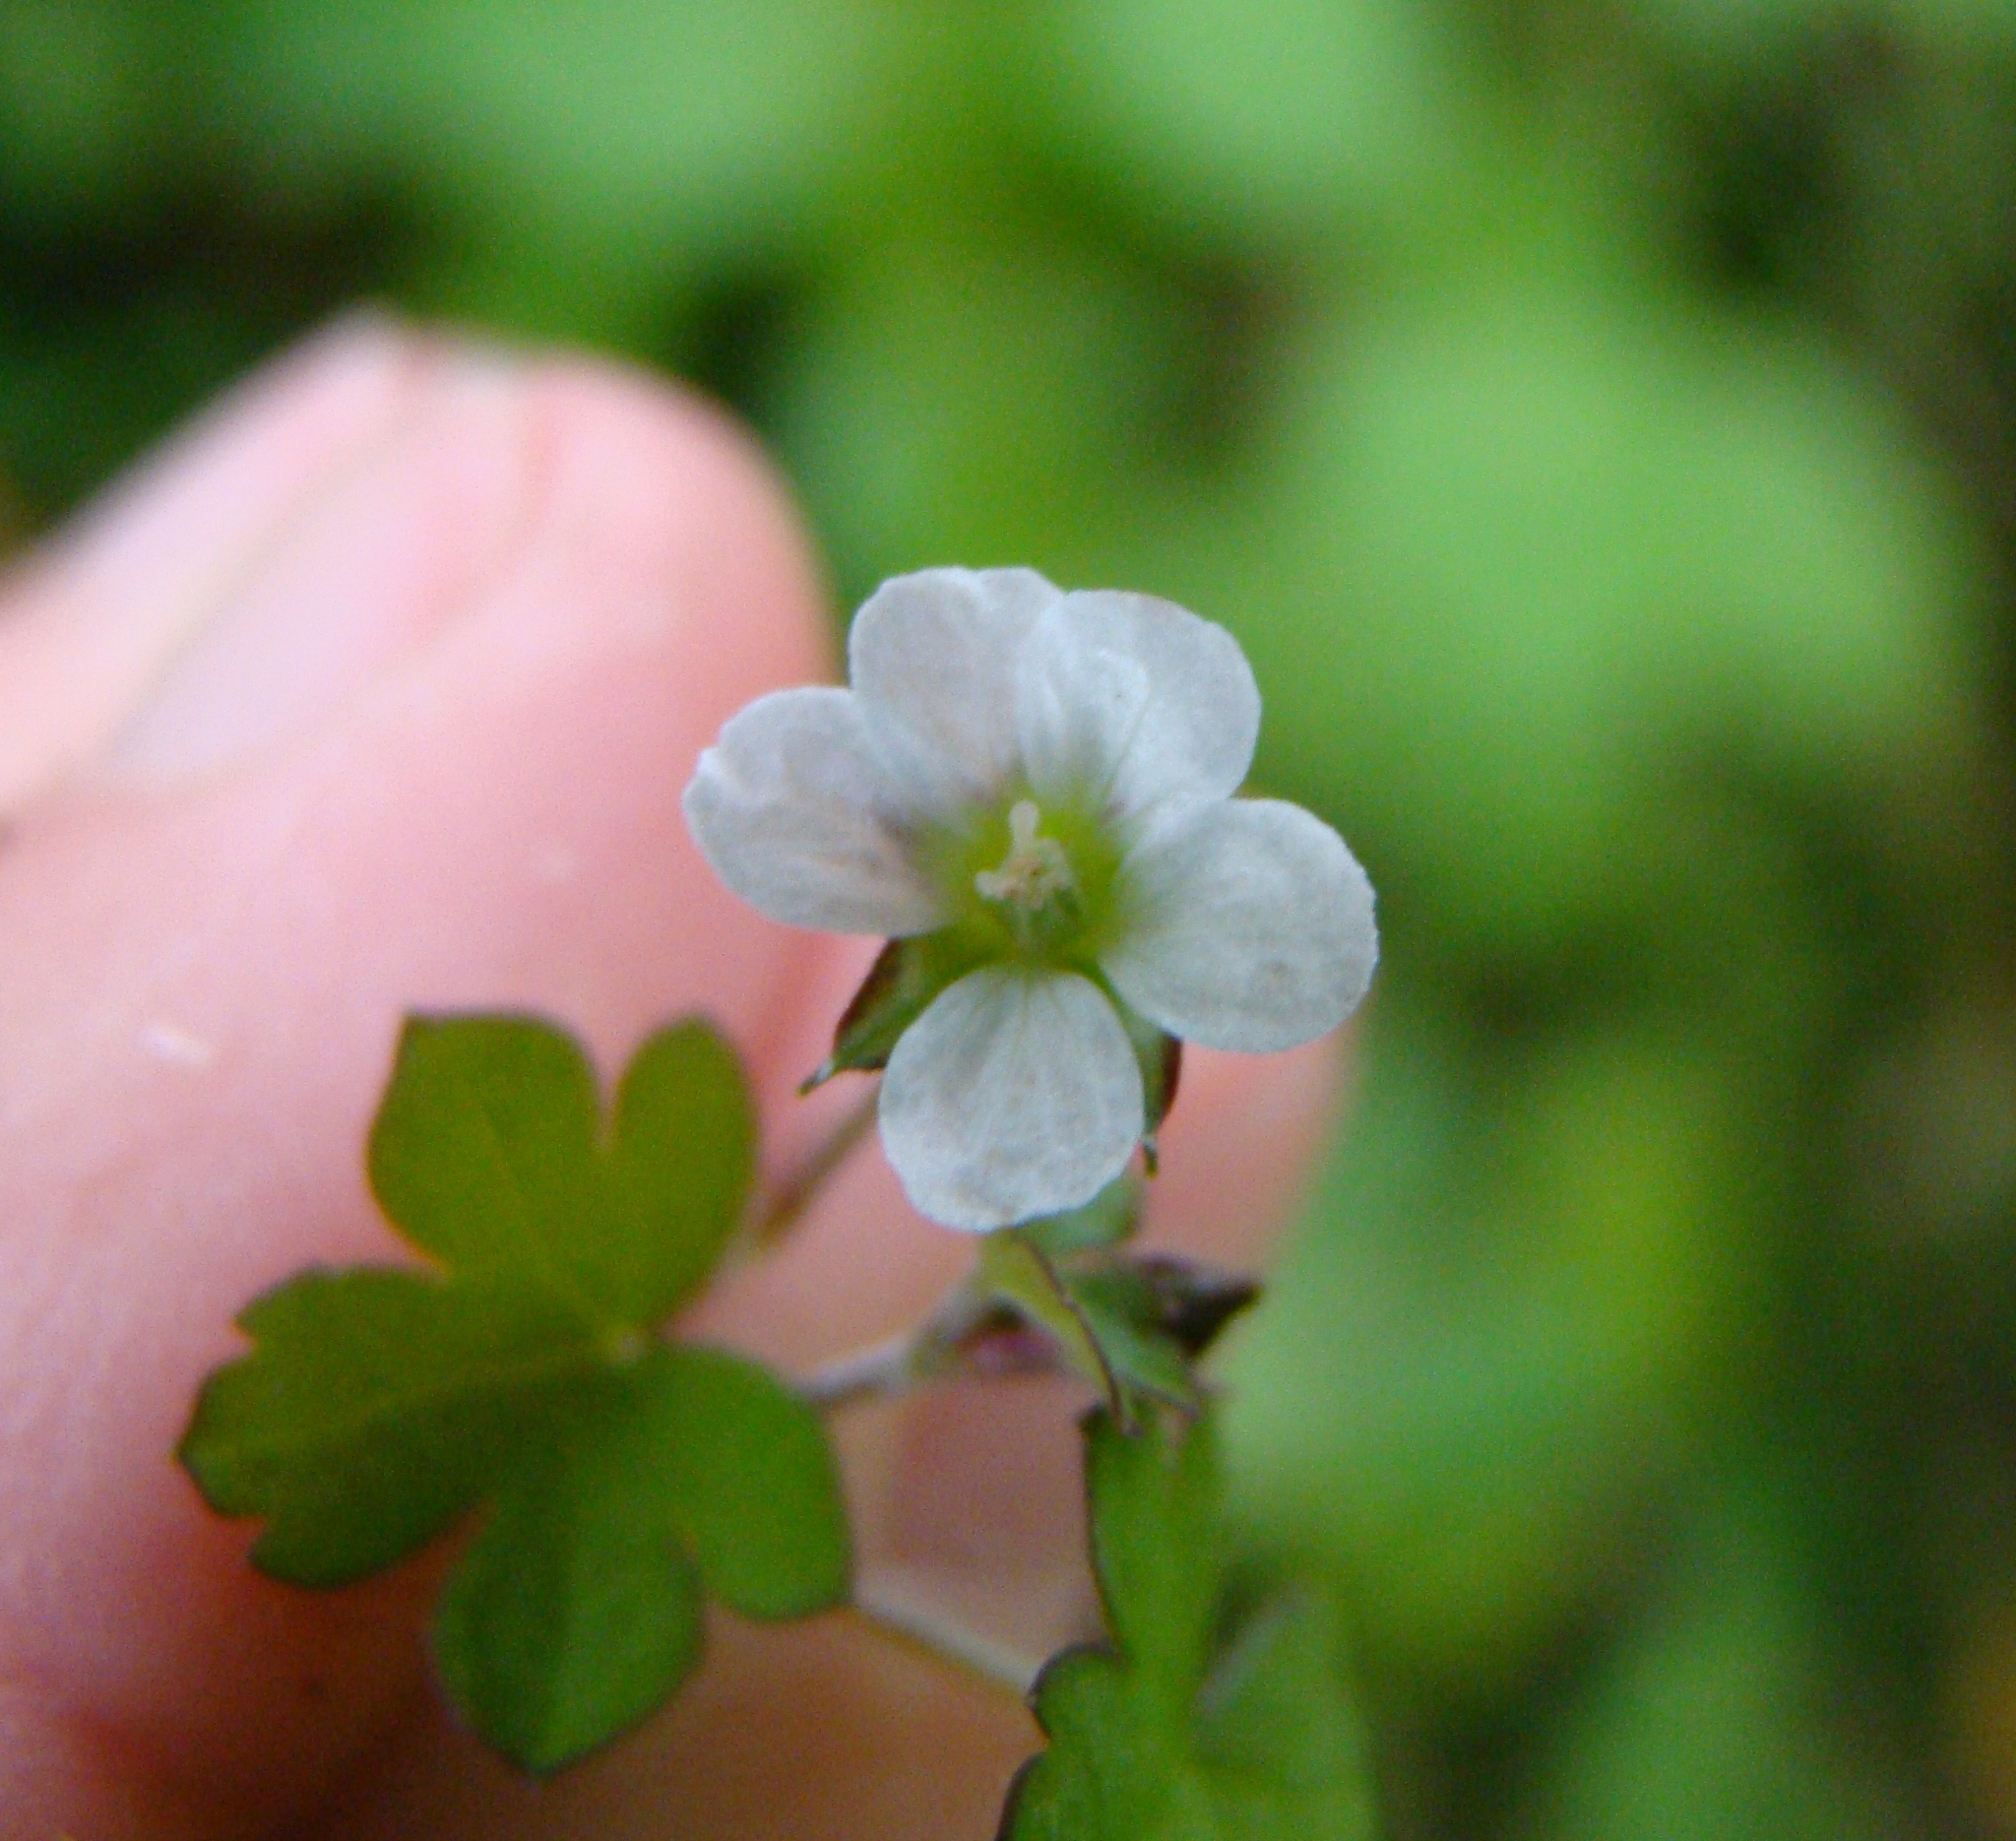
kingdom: Plantae
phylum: Tracheophyta
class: Magnoliopsida
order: Geraniales
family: Geraniaceae
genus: Geranium
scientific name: Geranium
